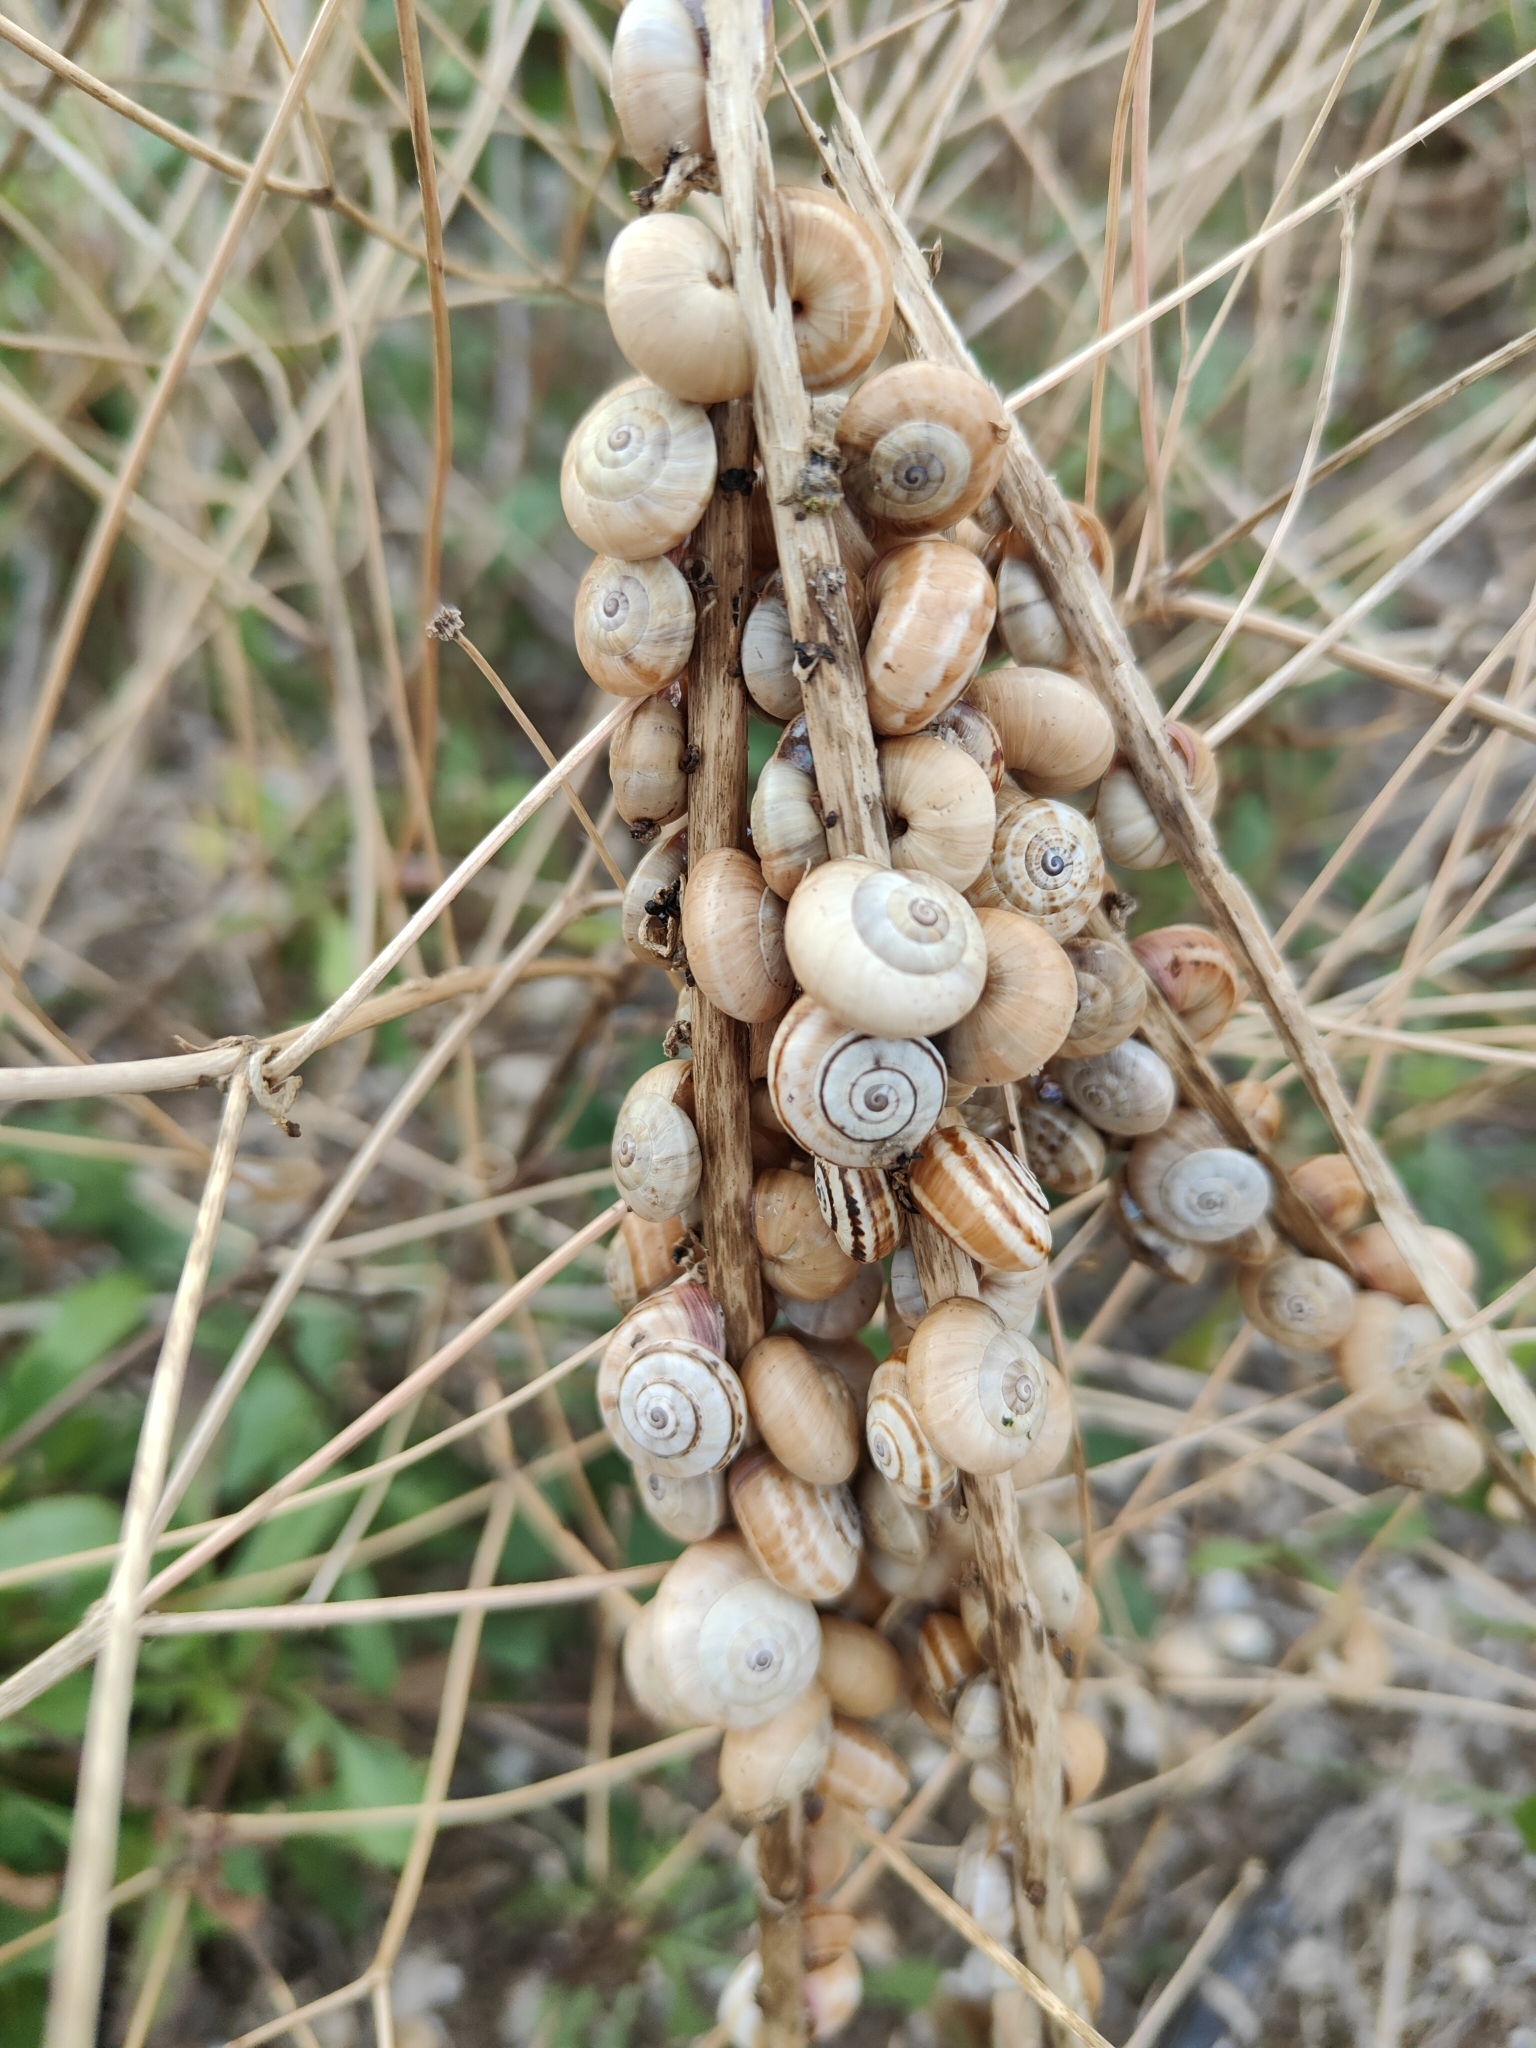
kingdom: Animalia
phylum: Mollusca
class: Gastropoda
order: Stylommatophora
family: Helicidae
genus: Theba
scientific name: Theba pisana
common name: White snail
